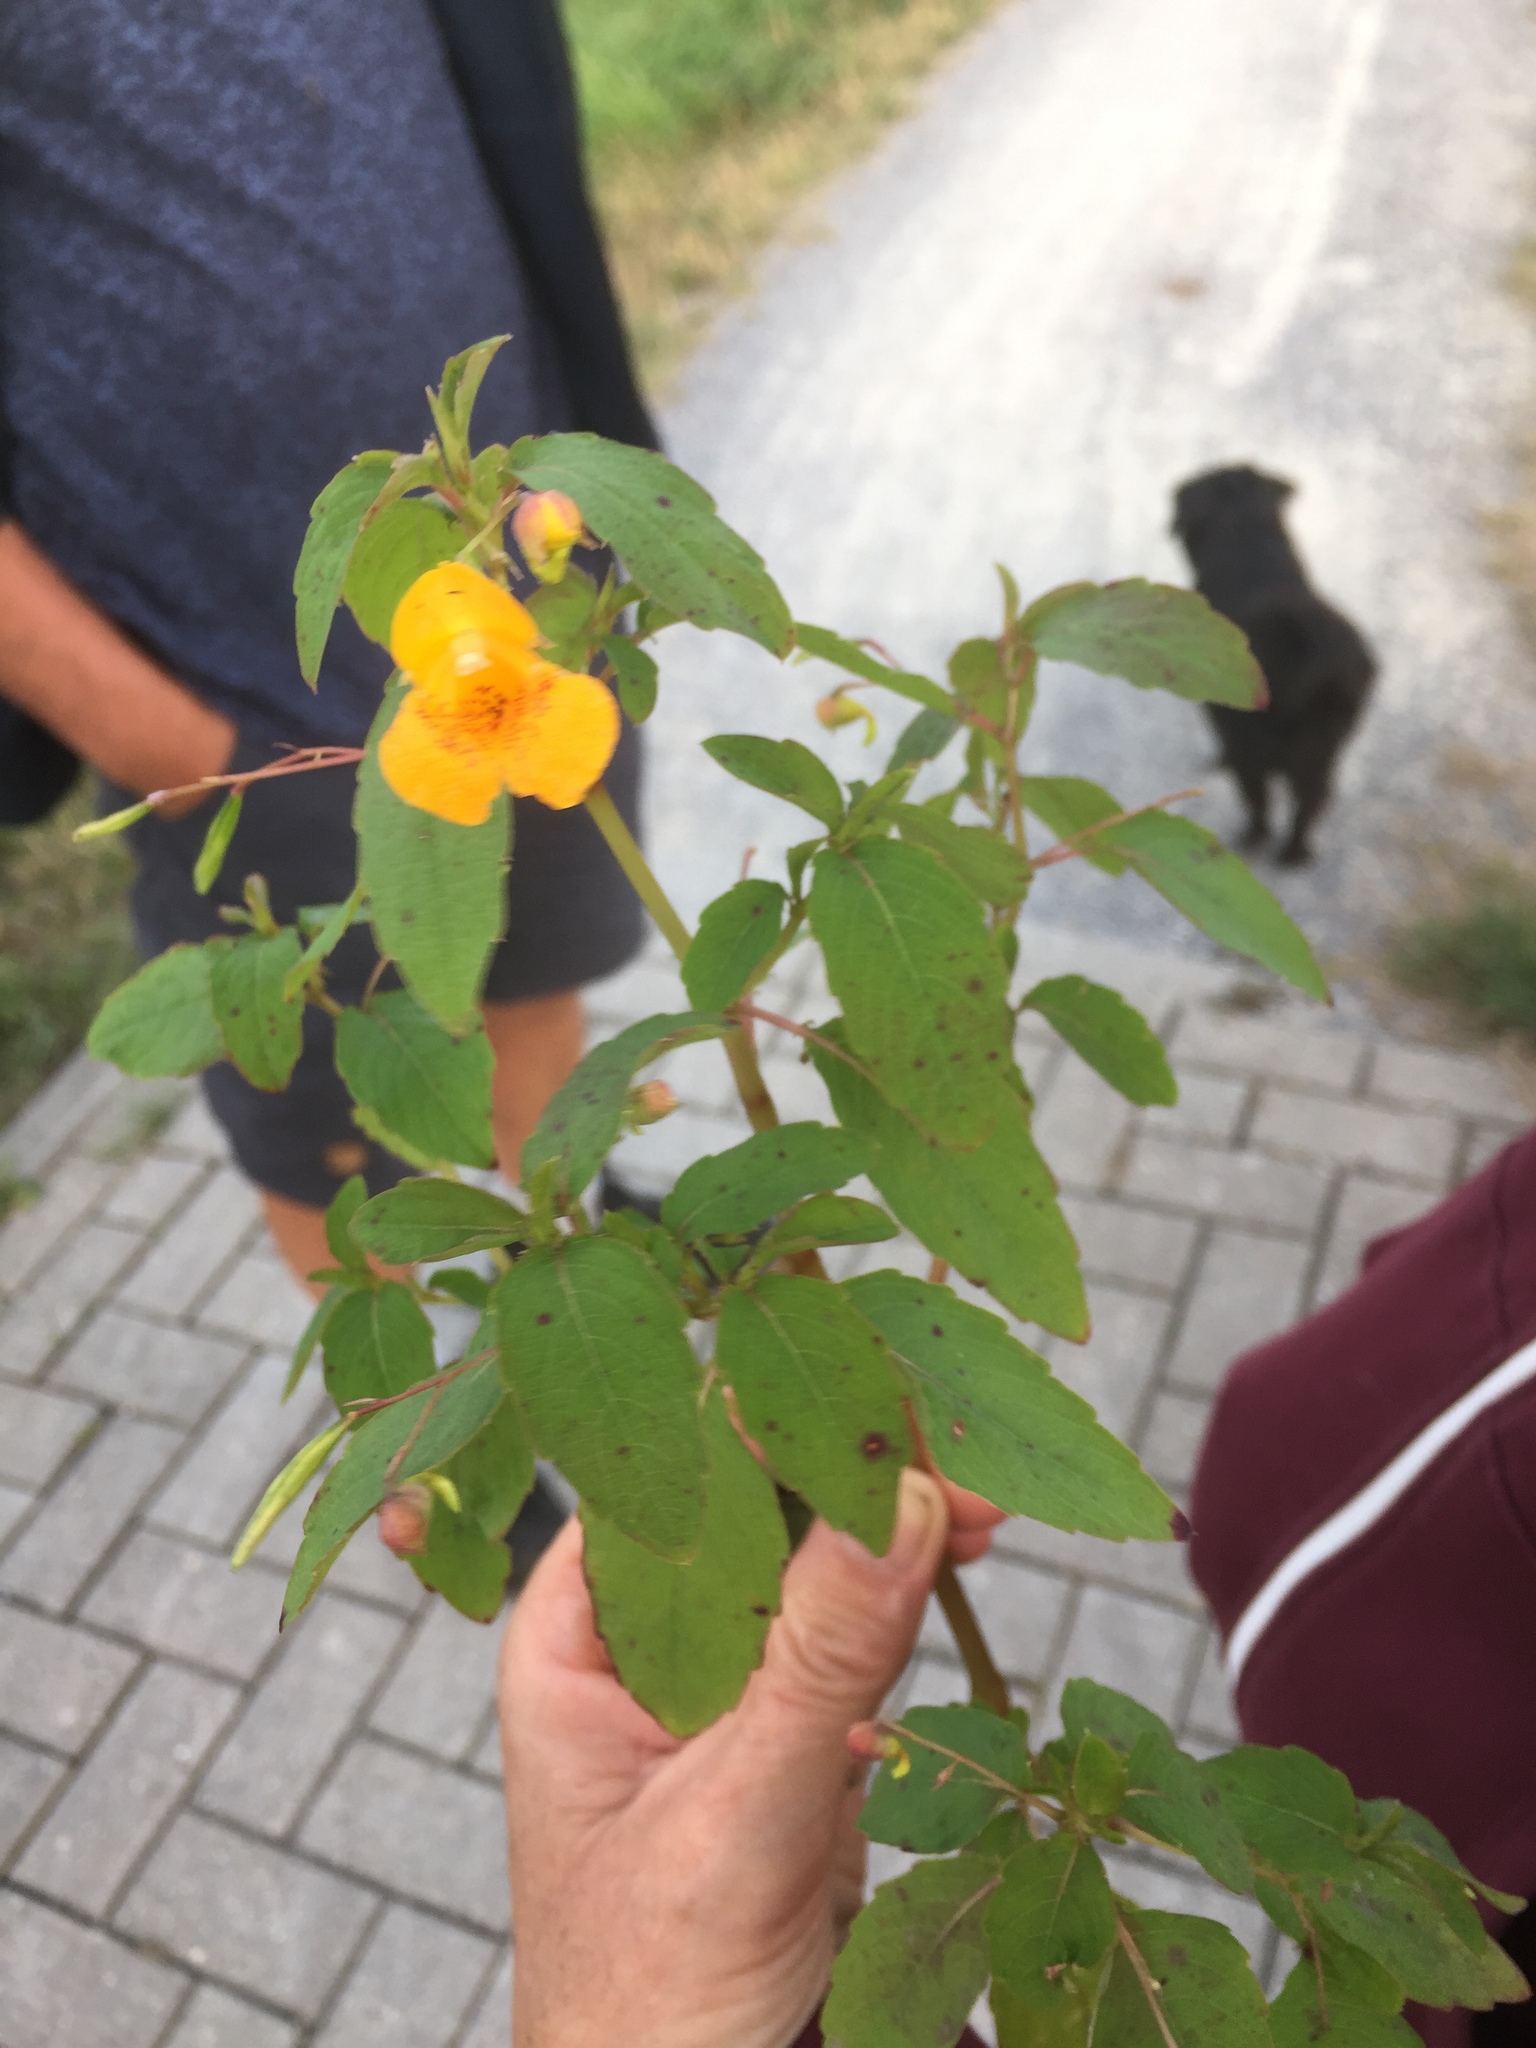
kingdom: Plantae
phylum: Tracheophyta
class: Magnoliopsida
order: Ericales
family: Balsaminaceae
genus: Impatiens
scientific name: Impatiens capensis
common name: Orange balsam
